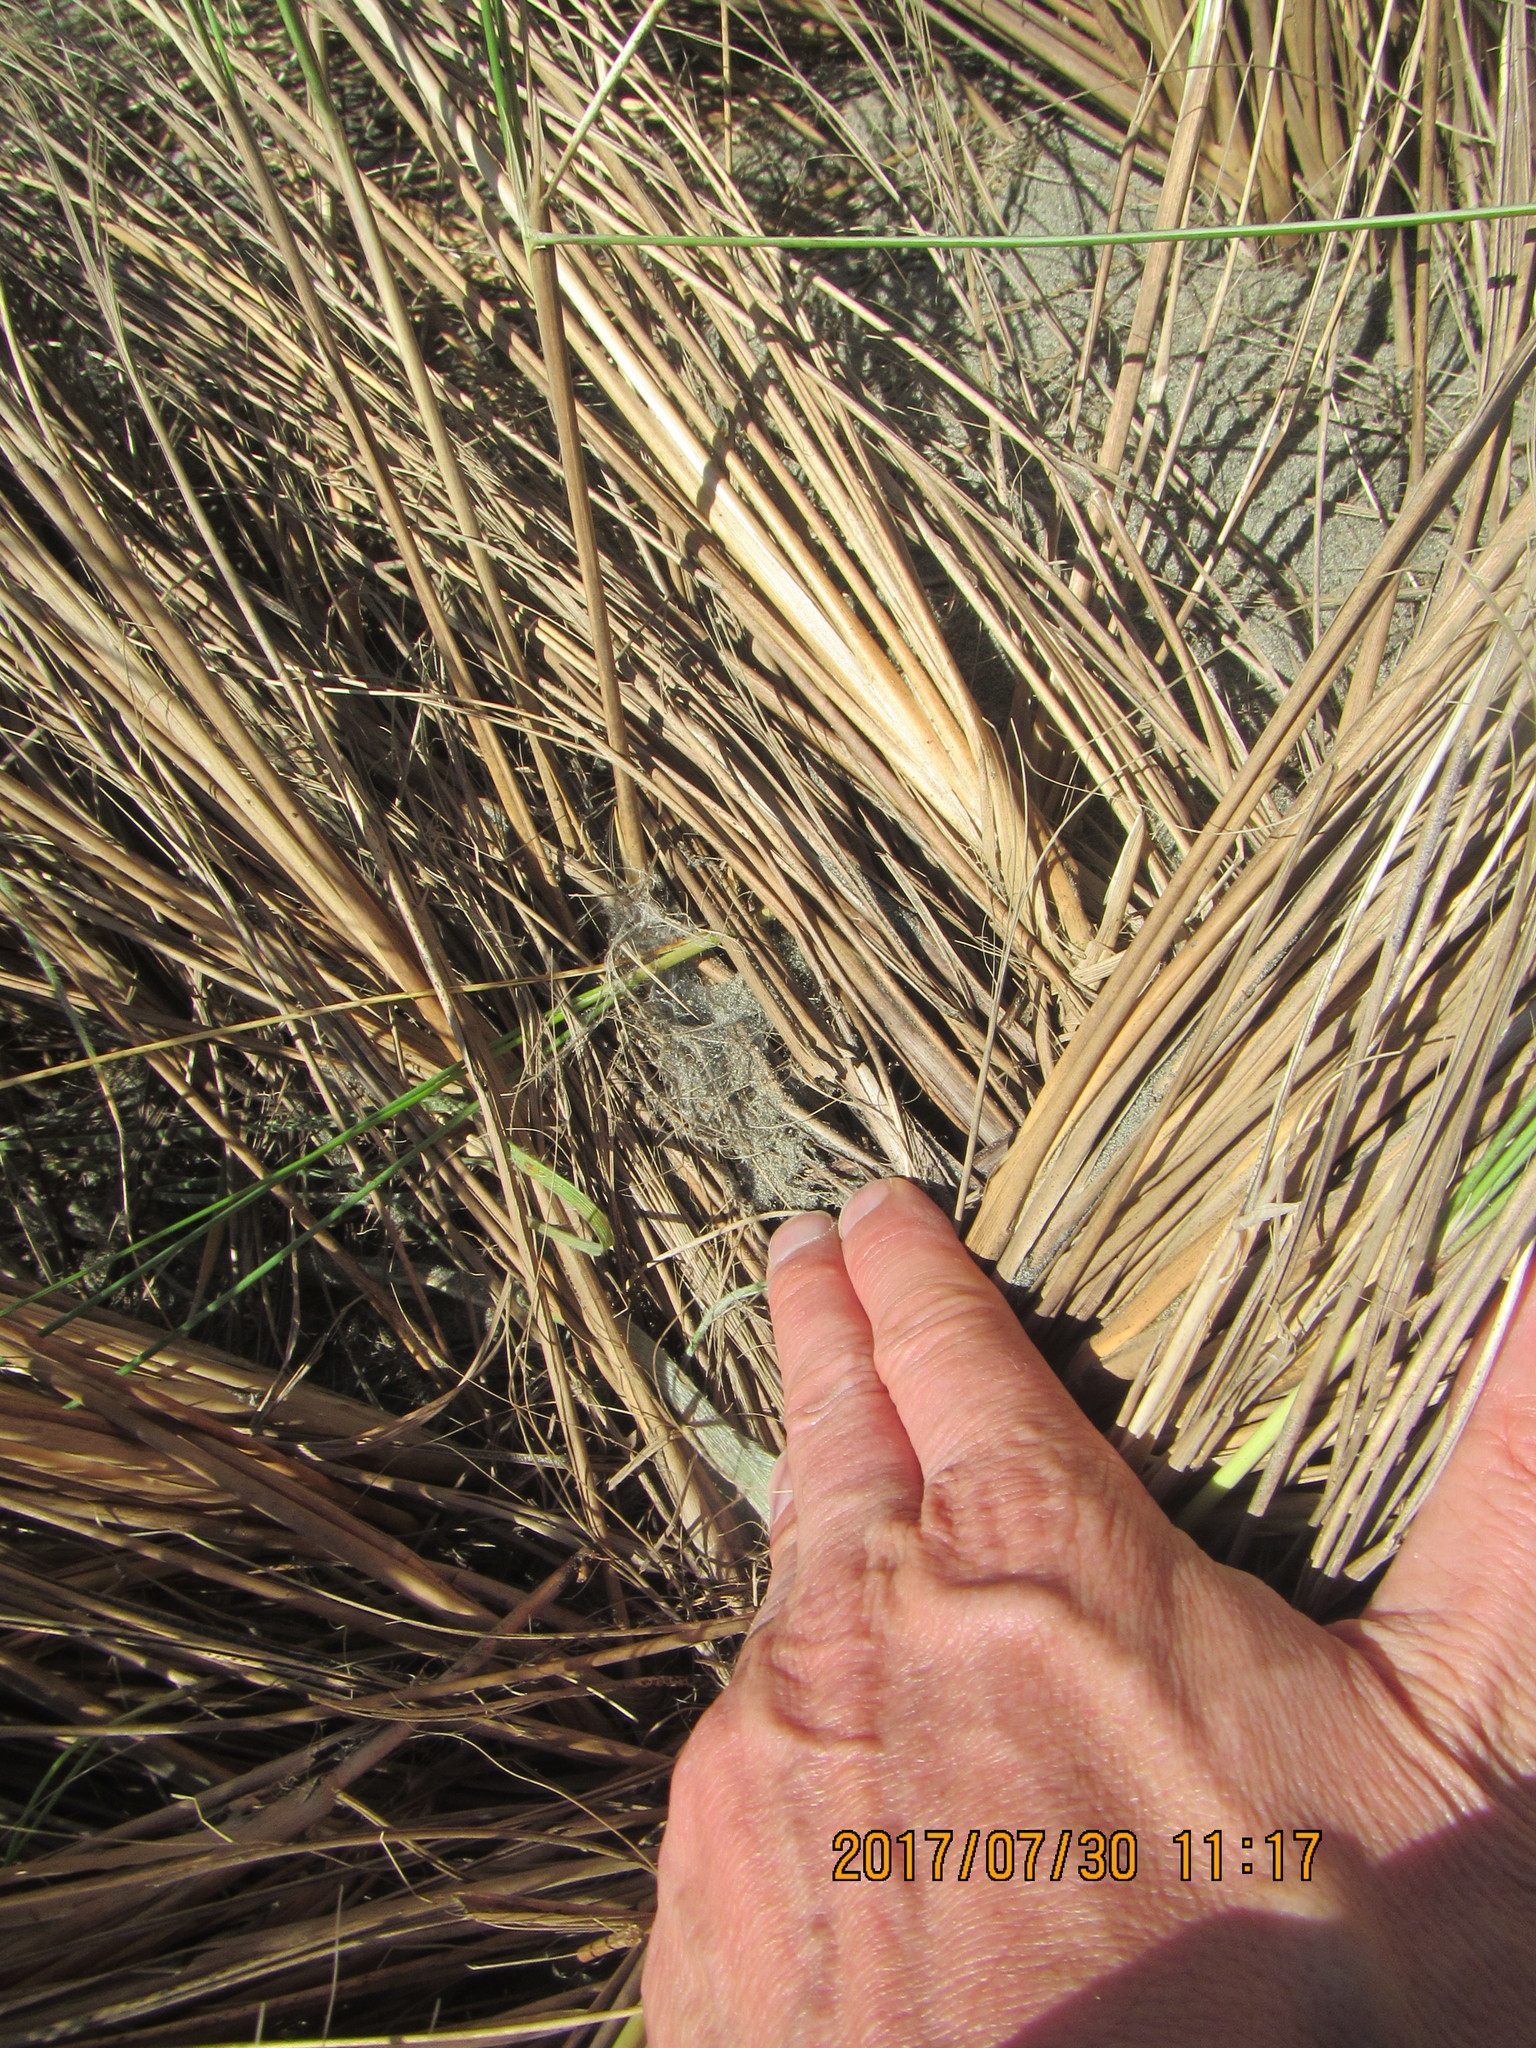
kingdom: Animalia
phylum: Arthropoda
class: Arachnida
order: Araneae
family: Porrhothelidae
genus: Porrhothele
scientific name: Porrhothele antipodiana
